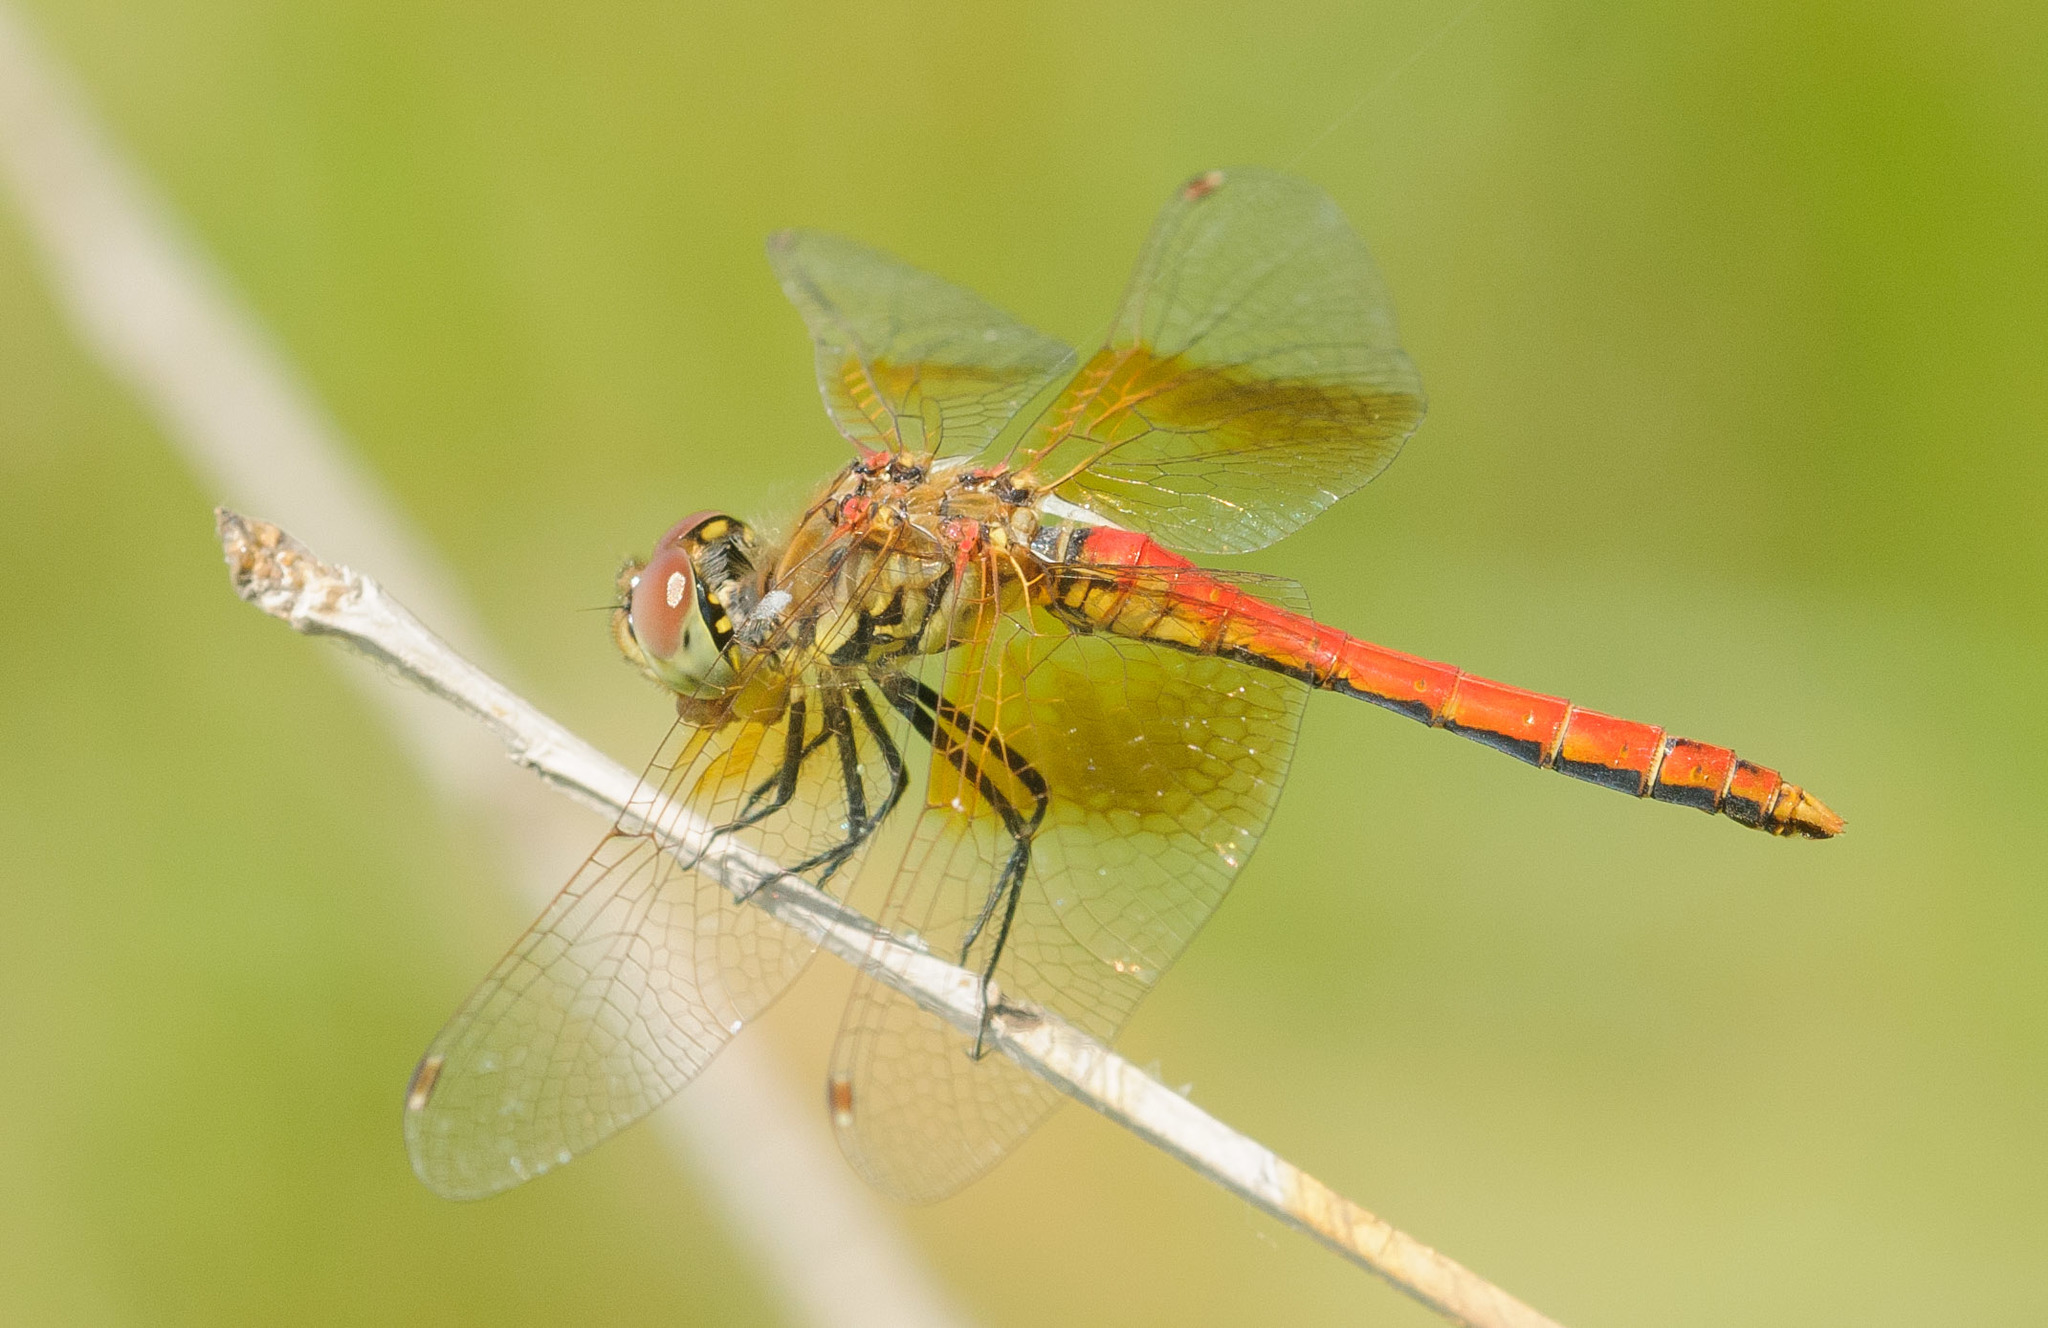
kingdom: Animalia
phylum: Arthropoda
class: Insecta
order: Odonata
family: Libellulidae
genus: Sympetrum
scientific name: Sympetrum semicinctum
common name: Band-winged meadowhawk
